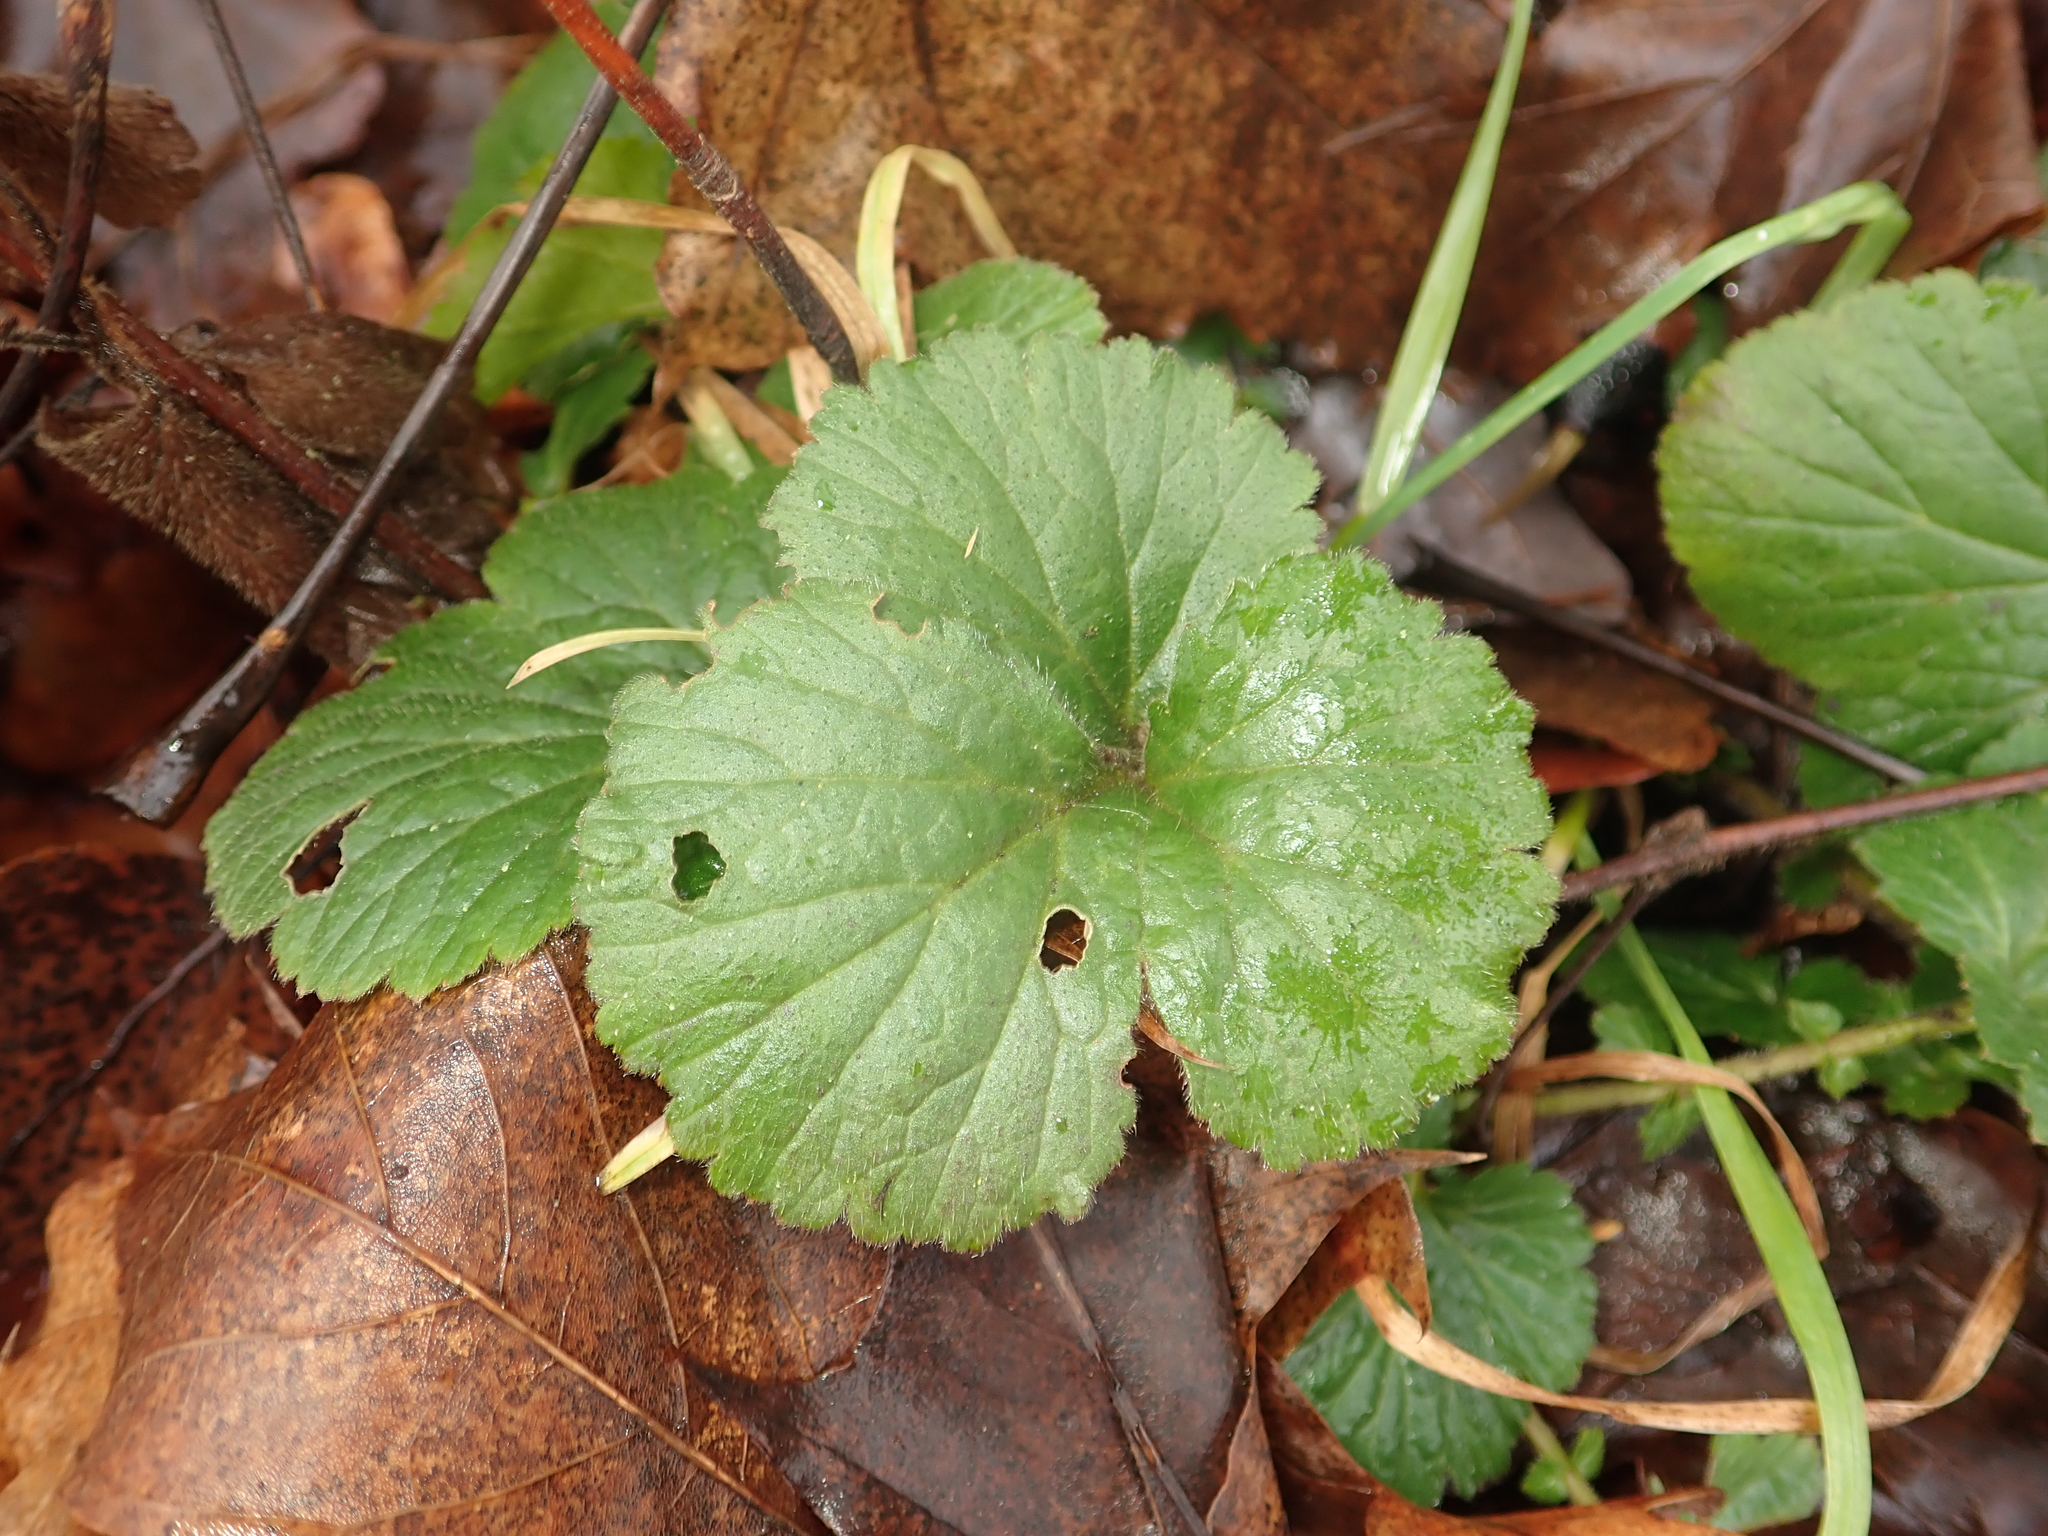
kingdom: Plantae
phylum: Tracheophyta
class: Magnoliopsida
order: Rosales
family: Rosaceae
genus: Geum
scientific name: Geum urbanum
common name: Wood avens
